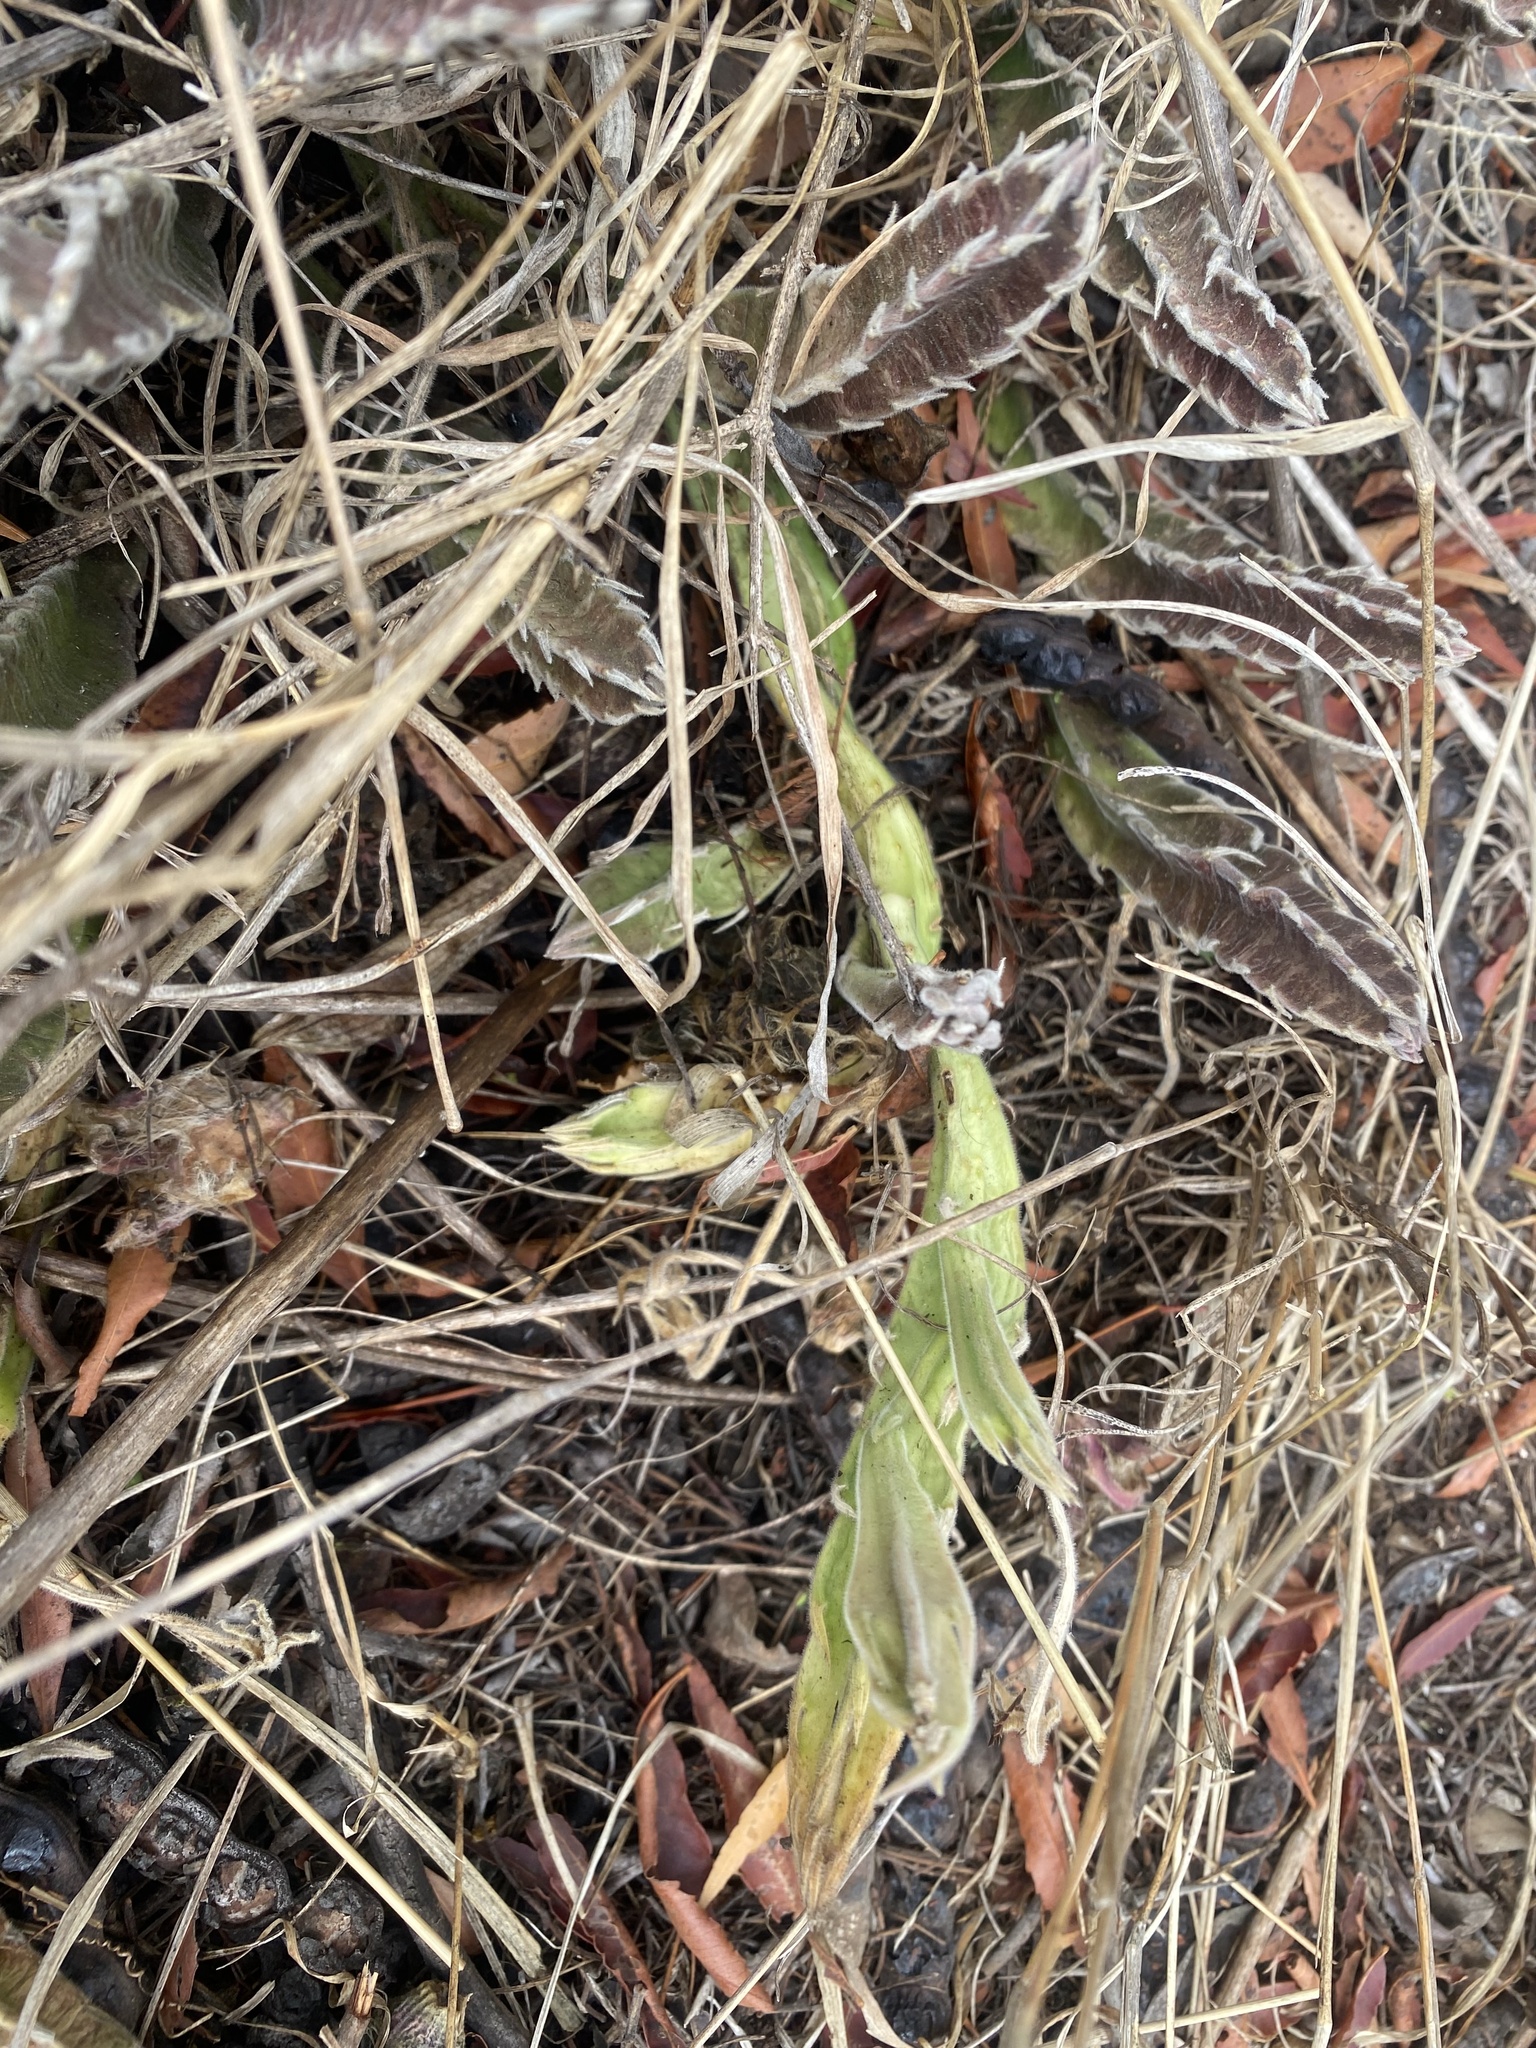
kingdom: Plantae
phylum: Tracheophyta
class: Magnoliopsida
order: Gentianales
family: Apocynaceae
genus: Stapelia
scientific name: Stapelia gettliffei
